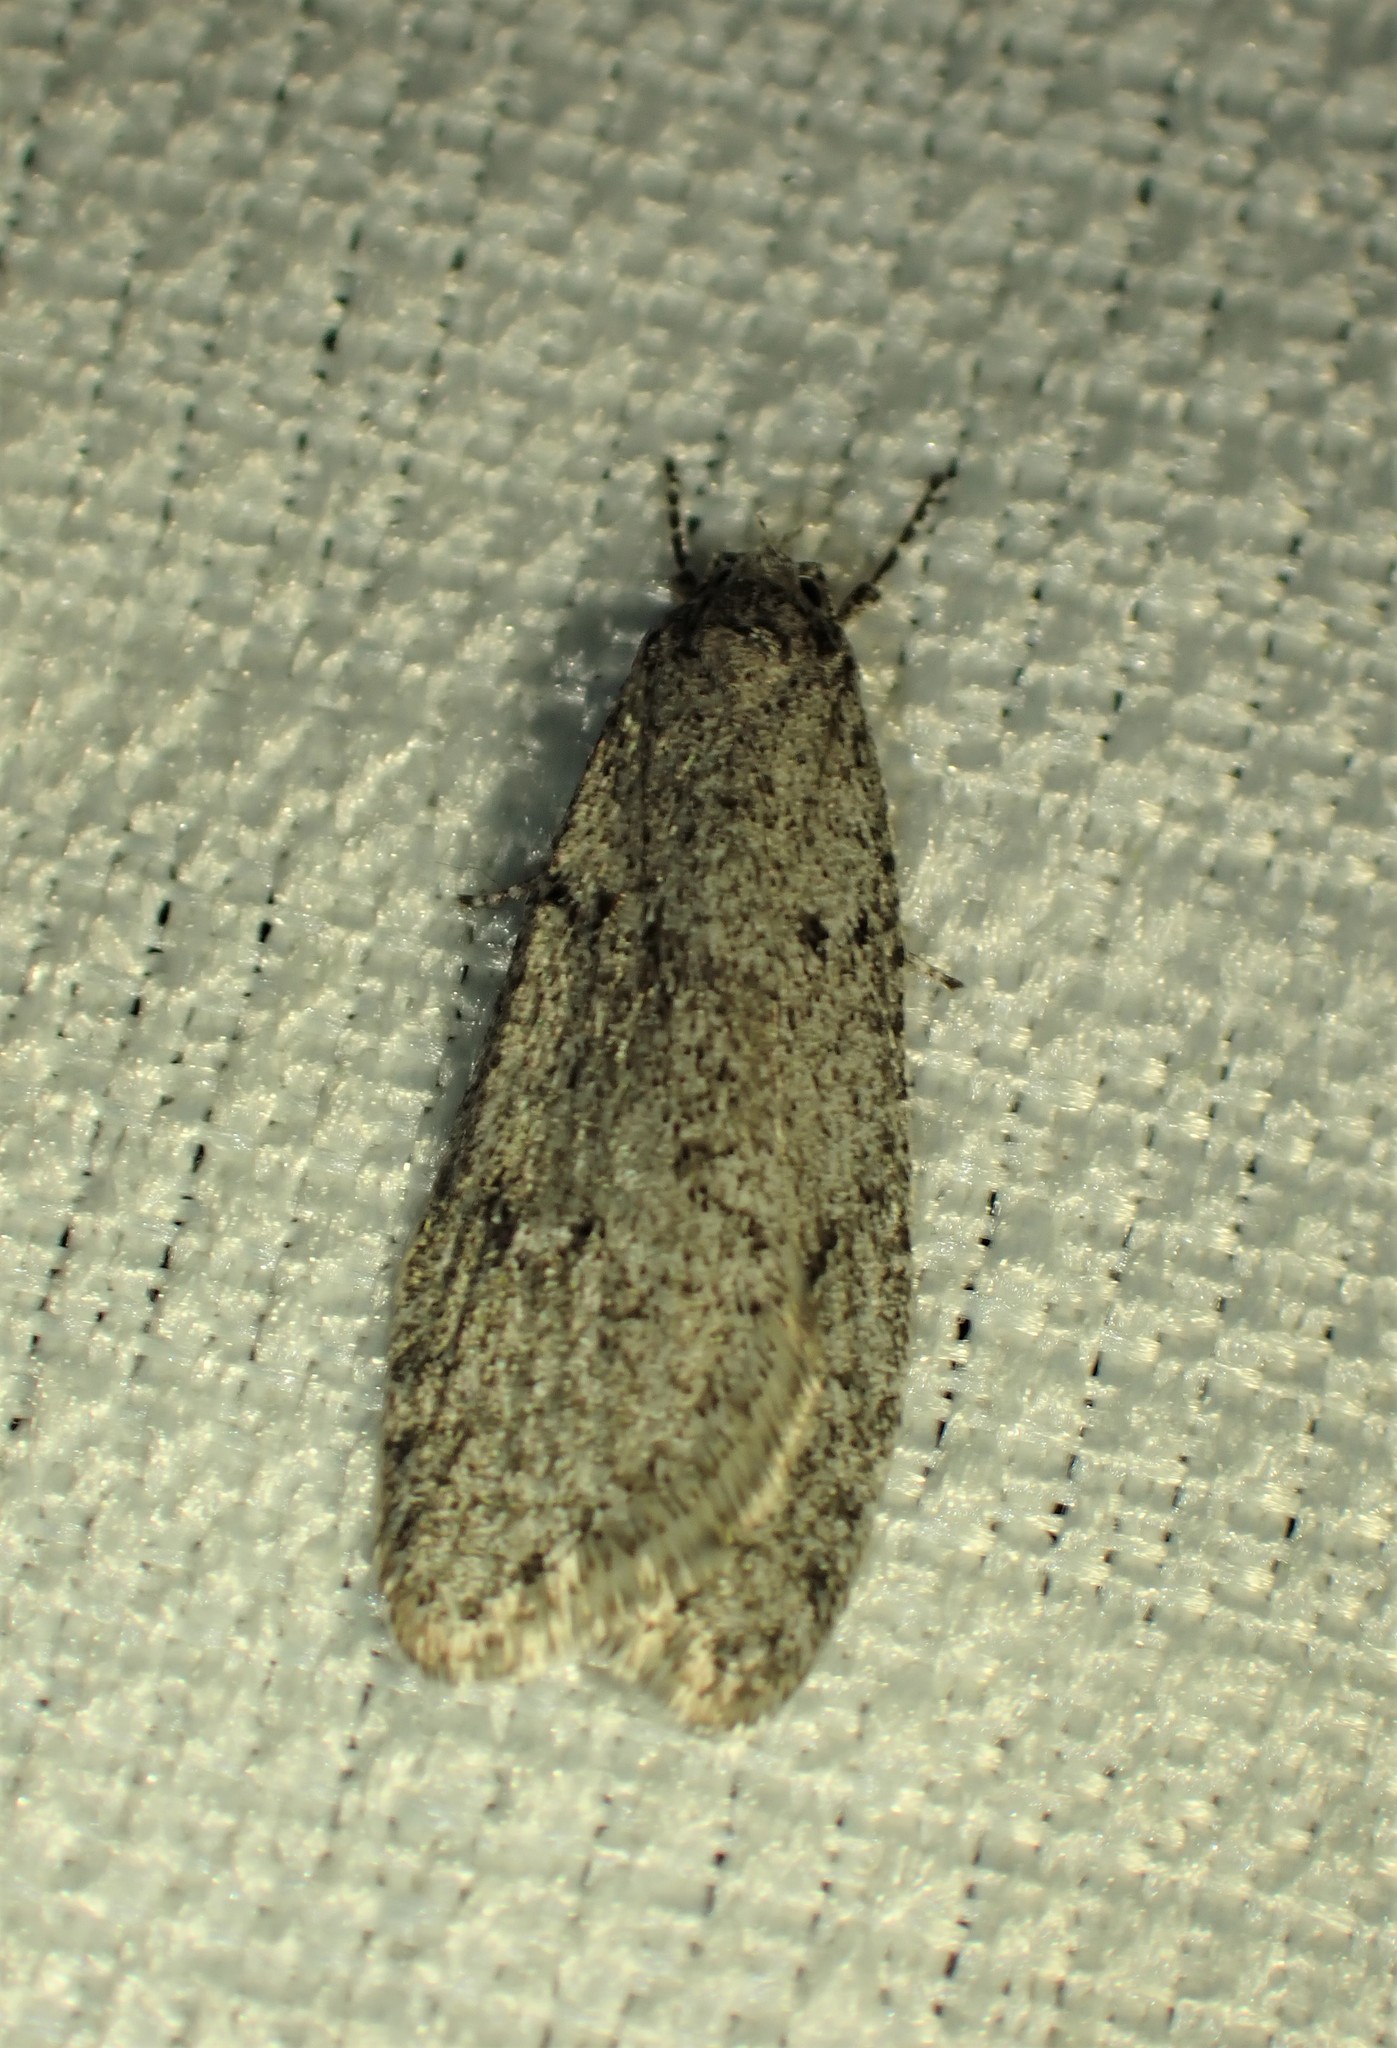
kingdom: Animalia
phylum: Arthropoda
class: Insecta
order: Lepidoptera
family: Depressariidae
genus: Semioscopis
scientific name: Semioscopis inornata
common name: Poplar micromoth
